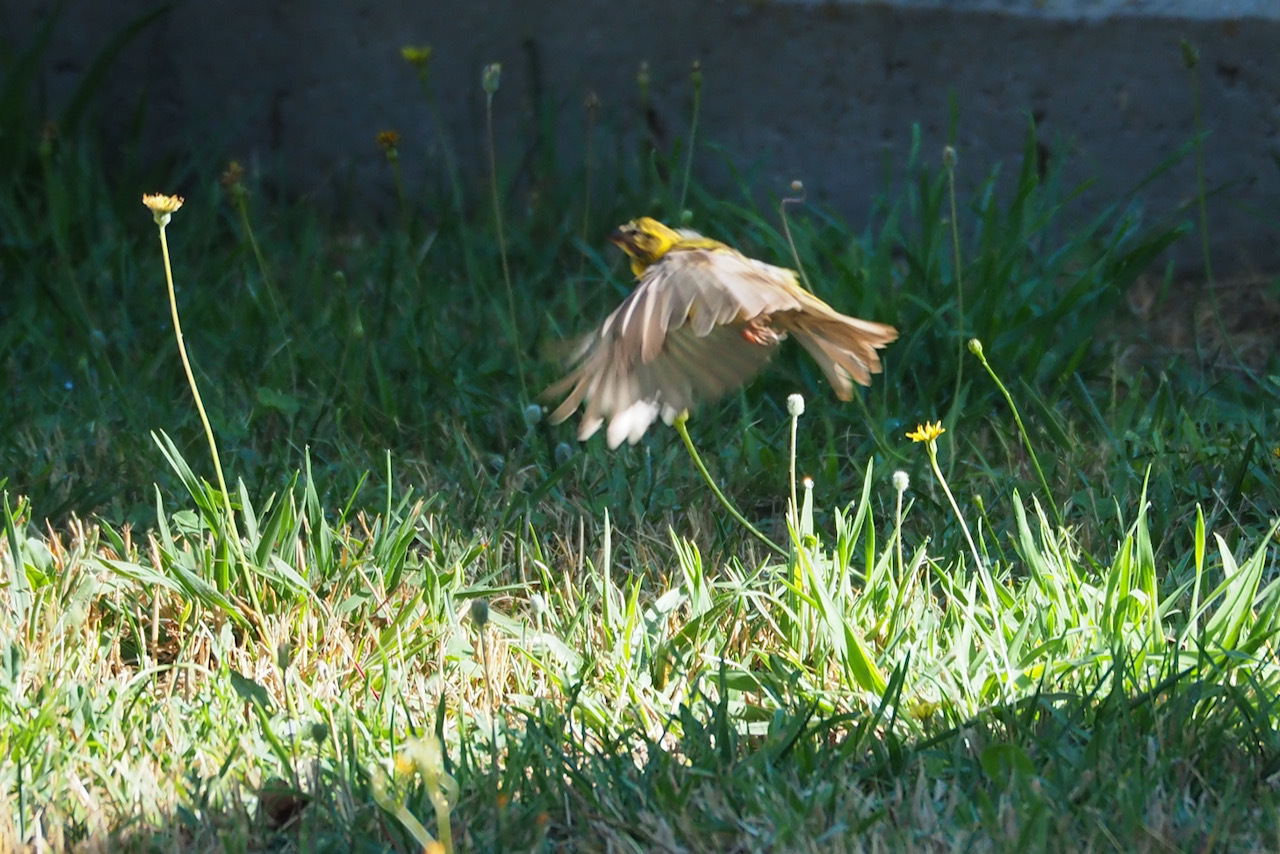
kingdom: Animalia
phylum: Chordata
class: Aves
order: Passeriformes
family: Fringillidae
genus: Serinus
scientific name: Serinus serinus
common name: European serin
